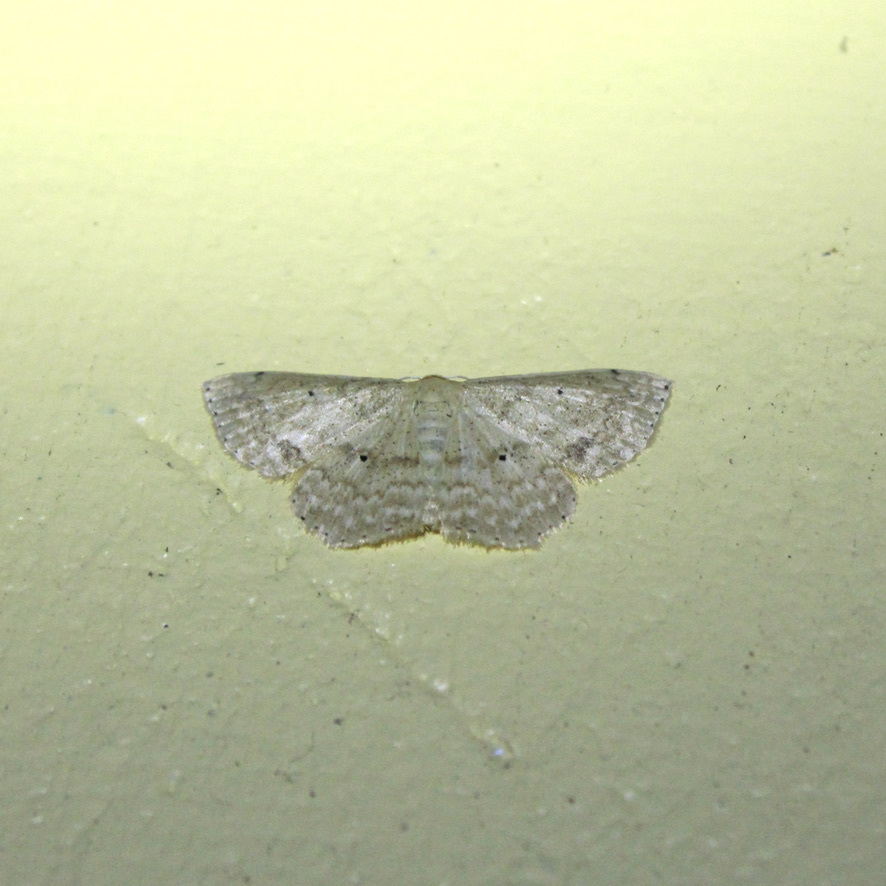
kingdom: Animalia
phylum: Arthropoda
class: Insecta
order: Lepidoptera
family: Geometridae
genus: Scopula
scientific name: Scopula subquadrata
